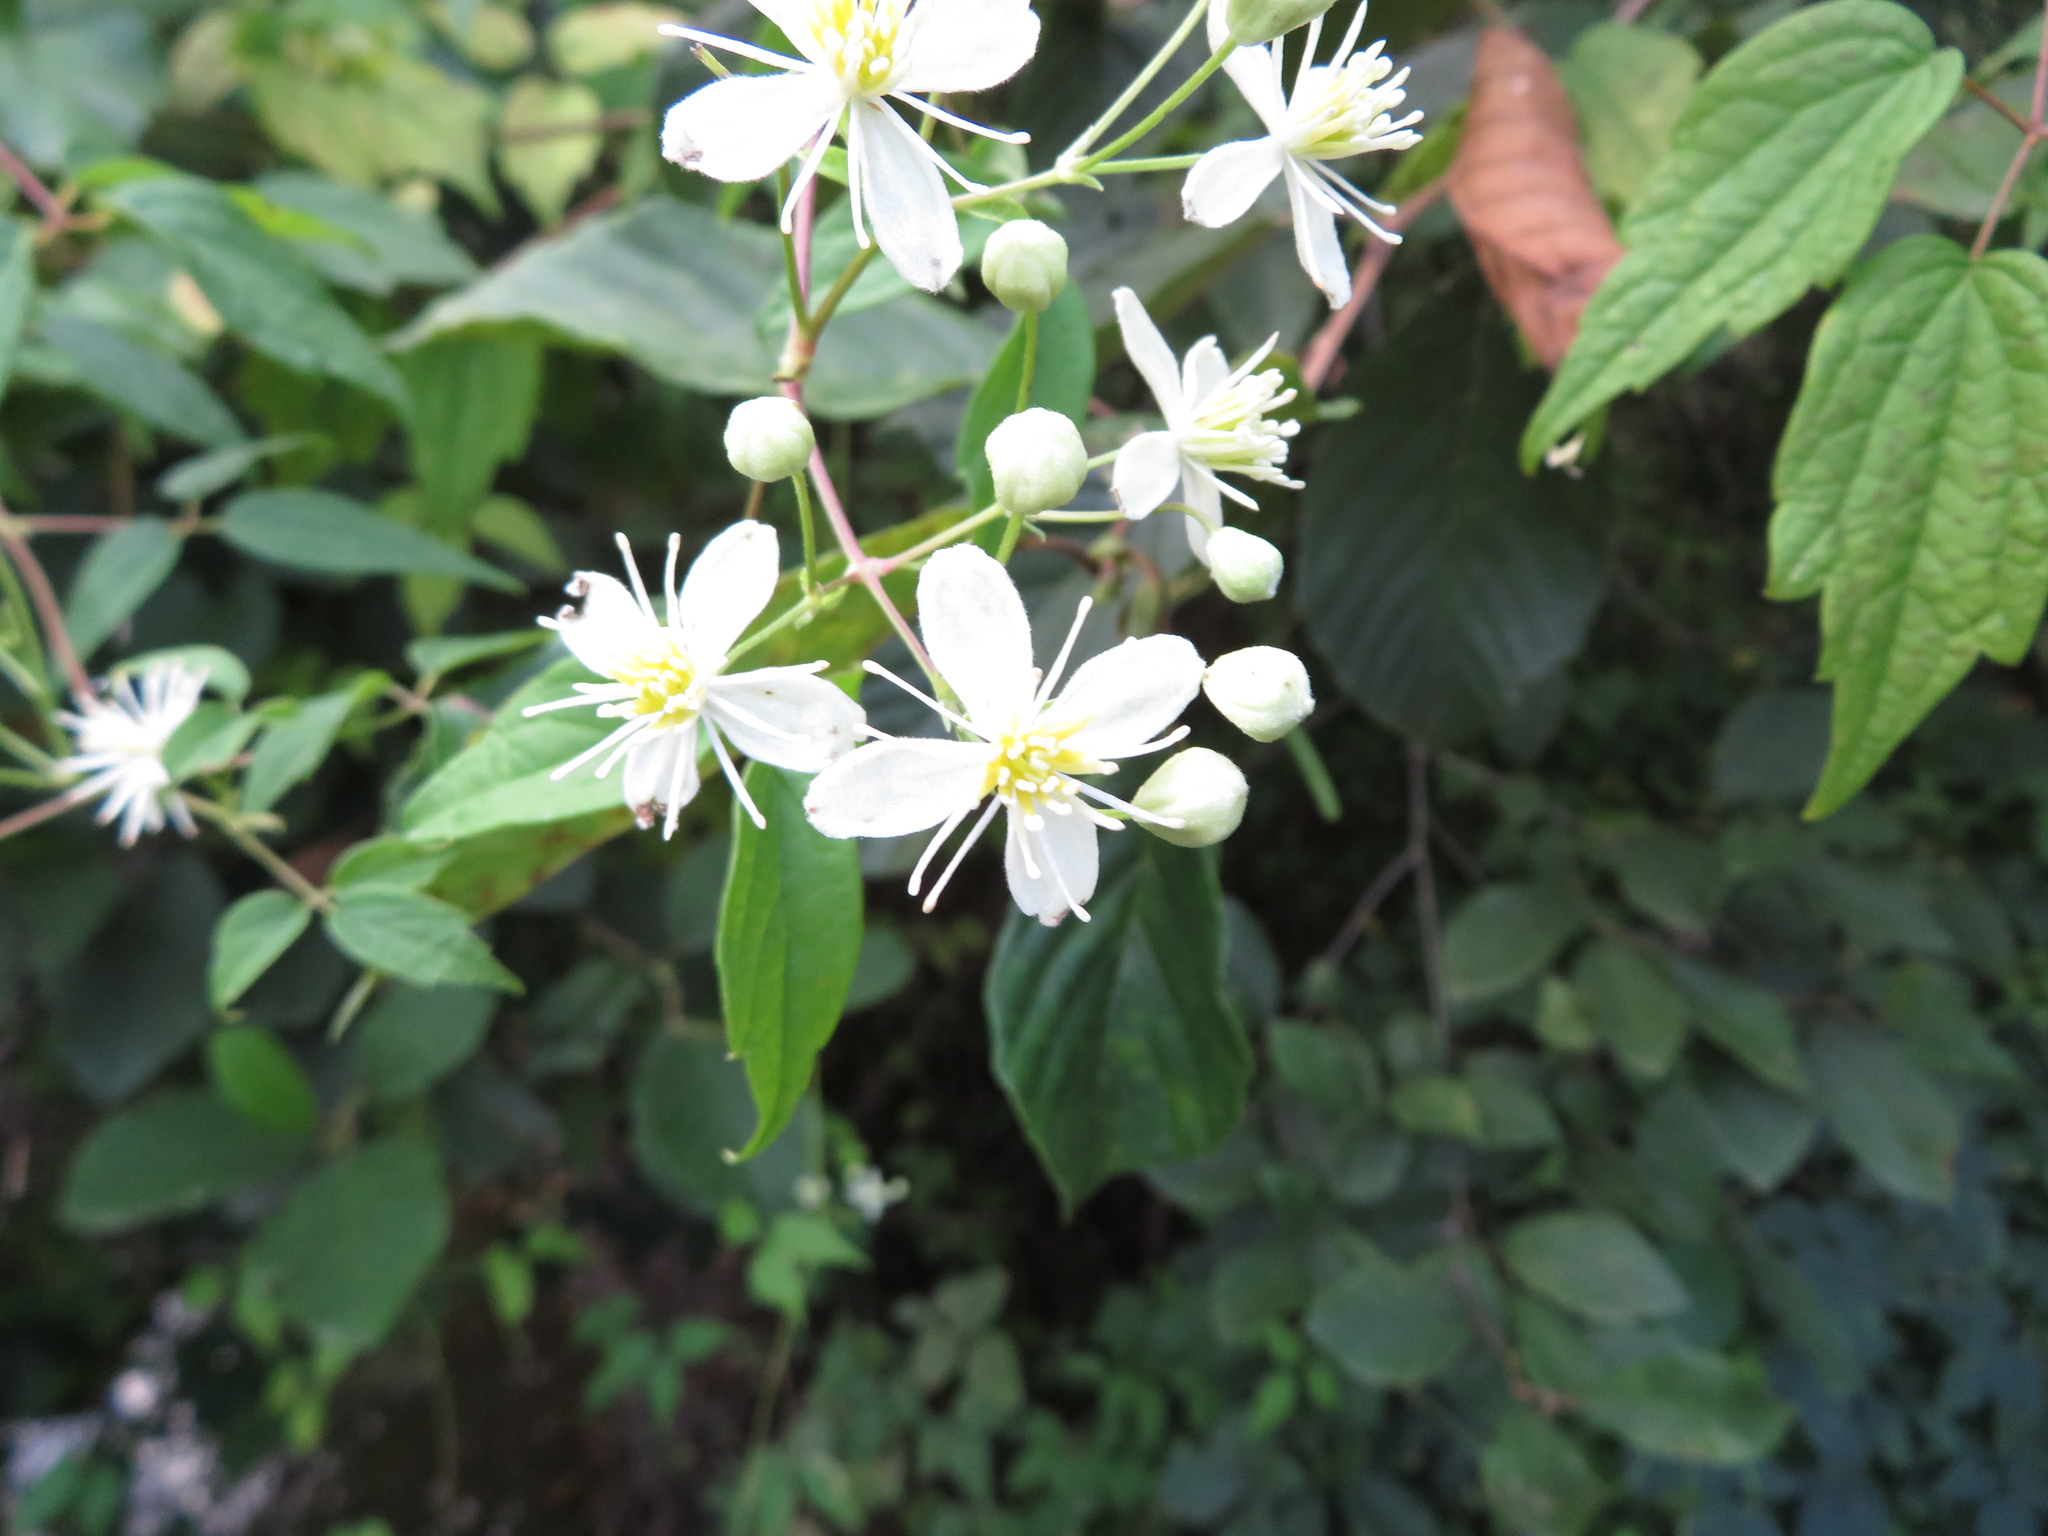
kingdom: Plantae
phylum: Tracheophyta
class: Magnoliopsida
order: Ranunculales
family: Ranunculaceae
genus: Clematis
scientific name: Clematis virginiana
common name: Virgin's-bower
